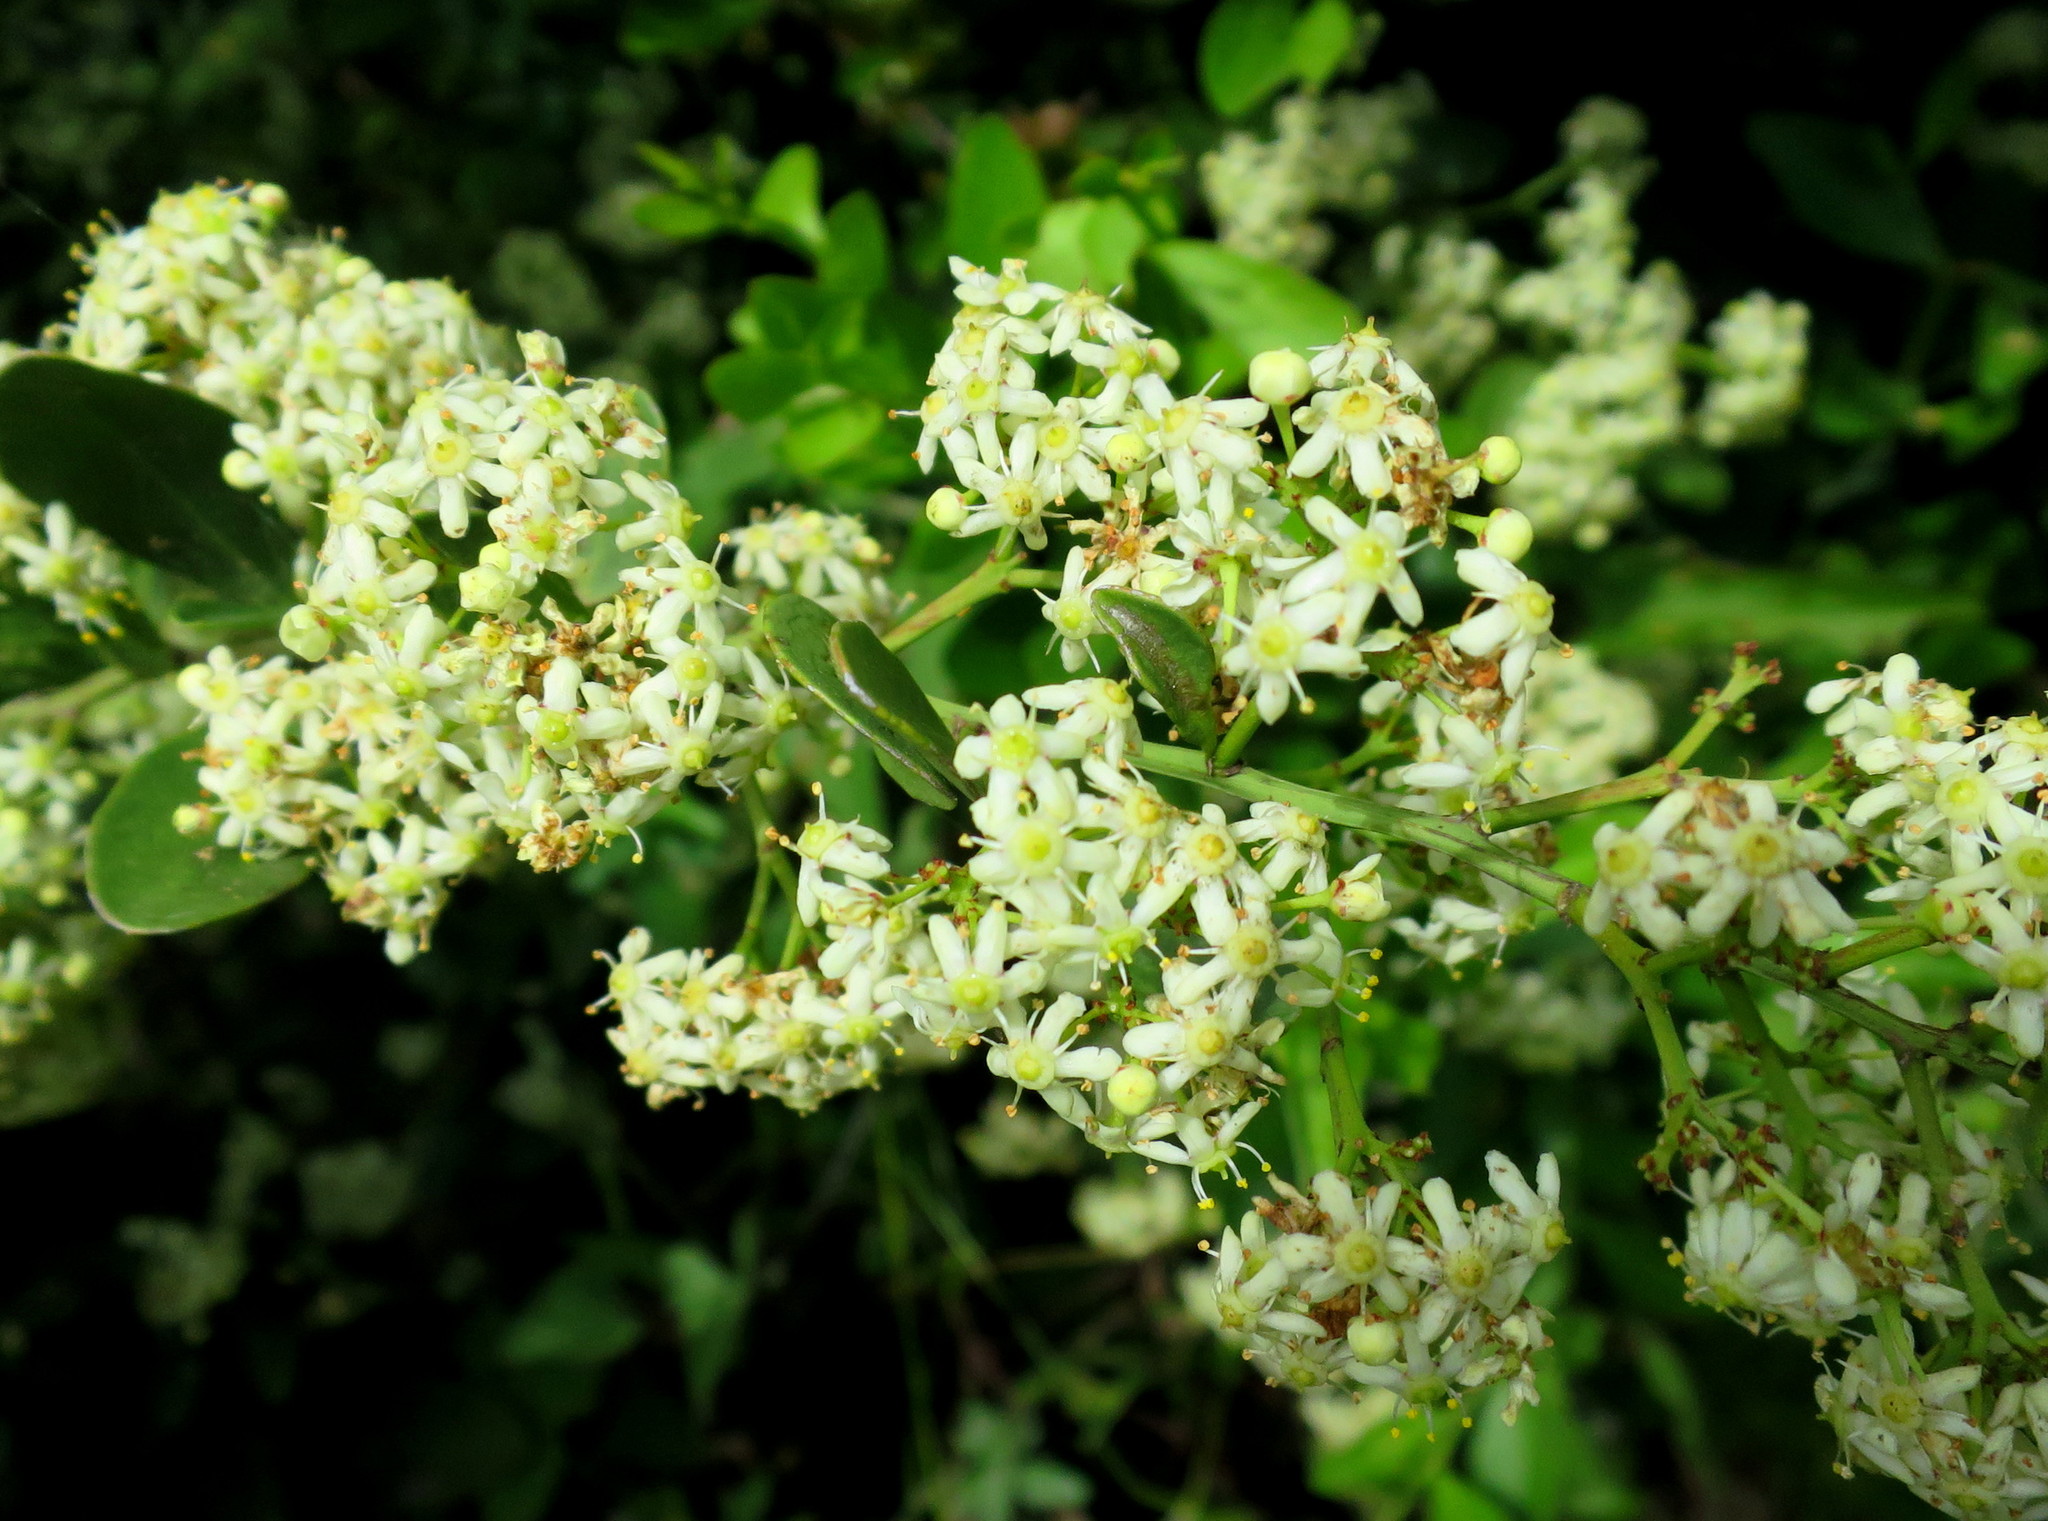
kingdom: Plantae
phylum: Tracheophyta
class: Magnoliopsida
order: Celastrales
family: Celastraceae
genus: Gymnosporia
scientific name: Gymnosporia nemorosa
